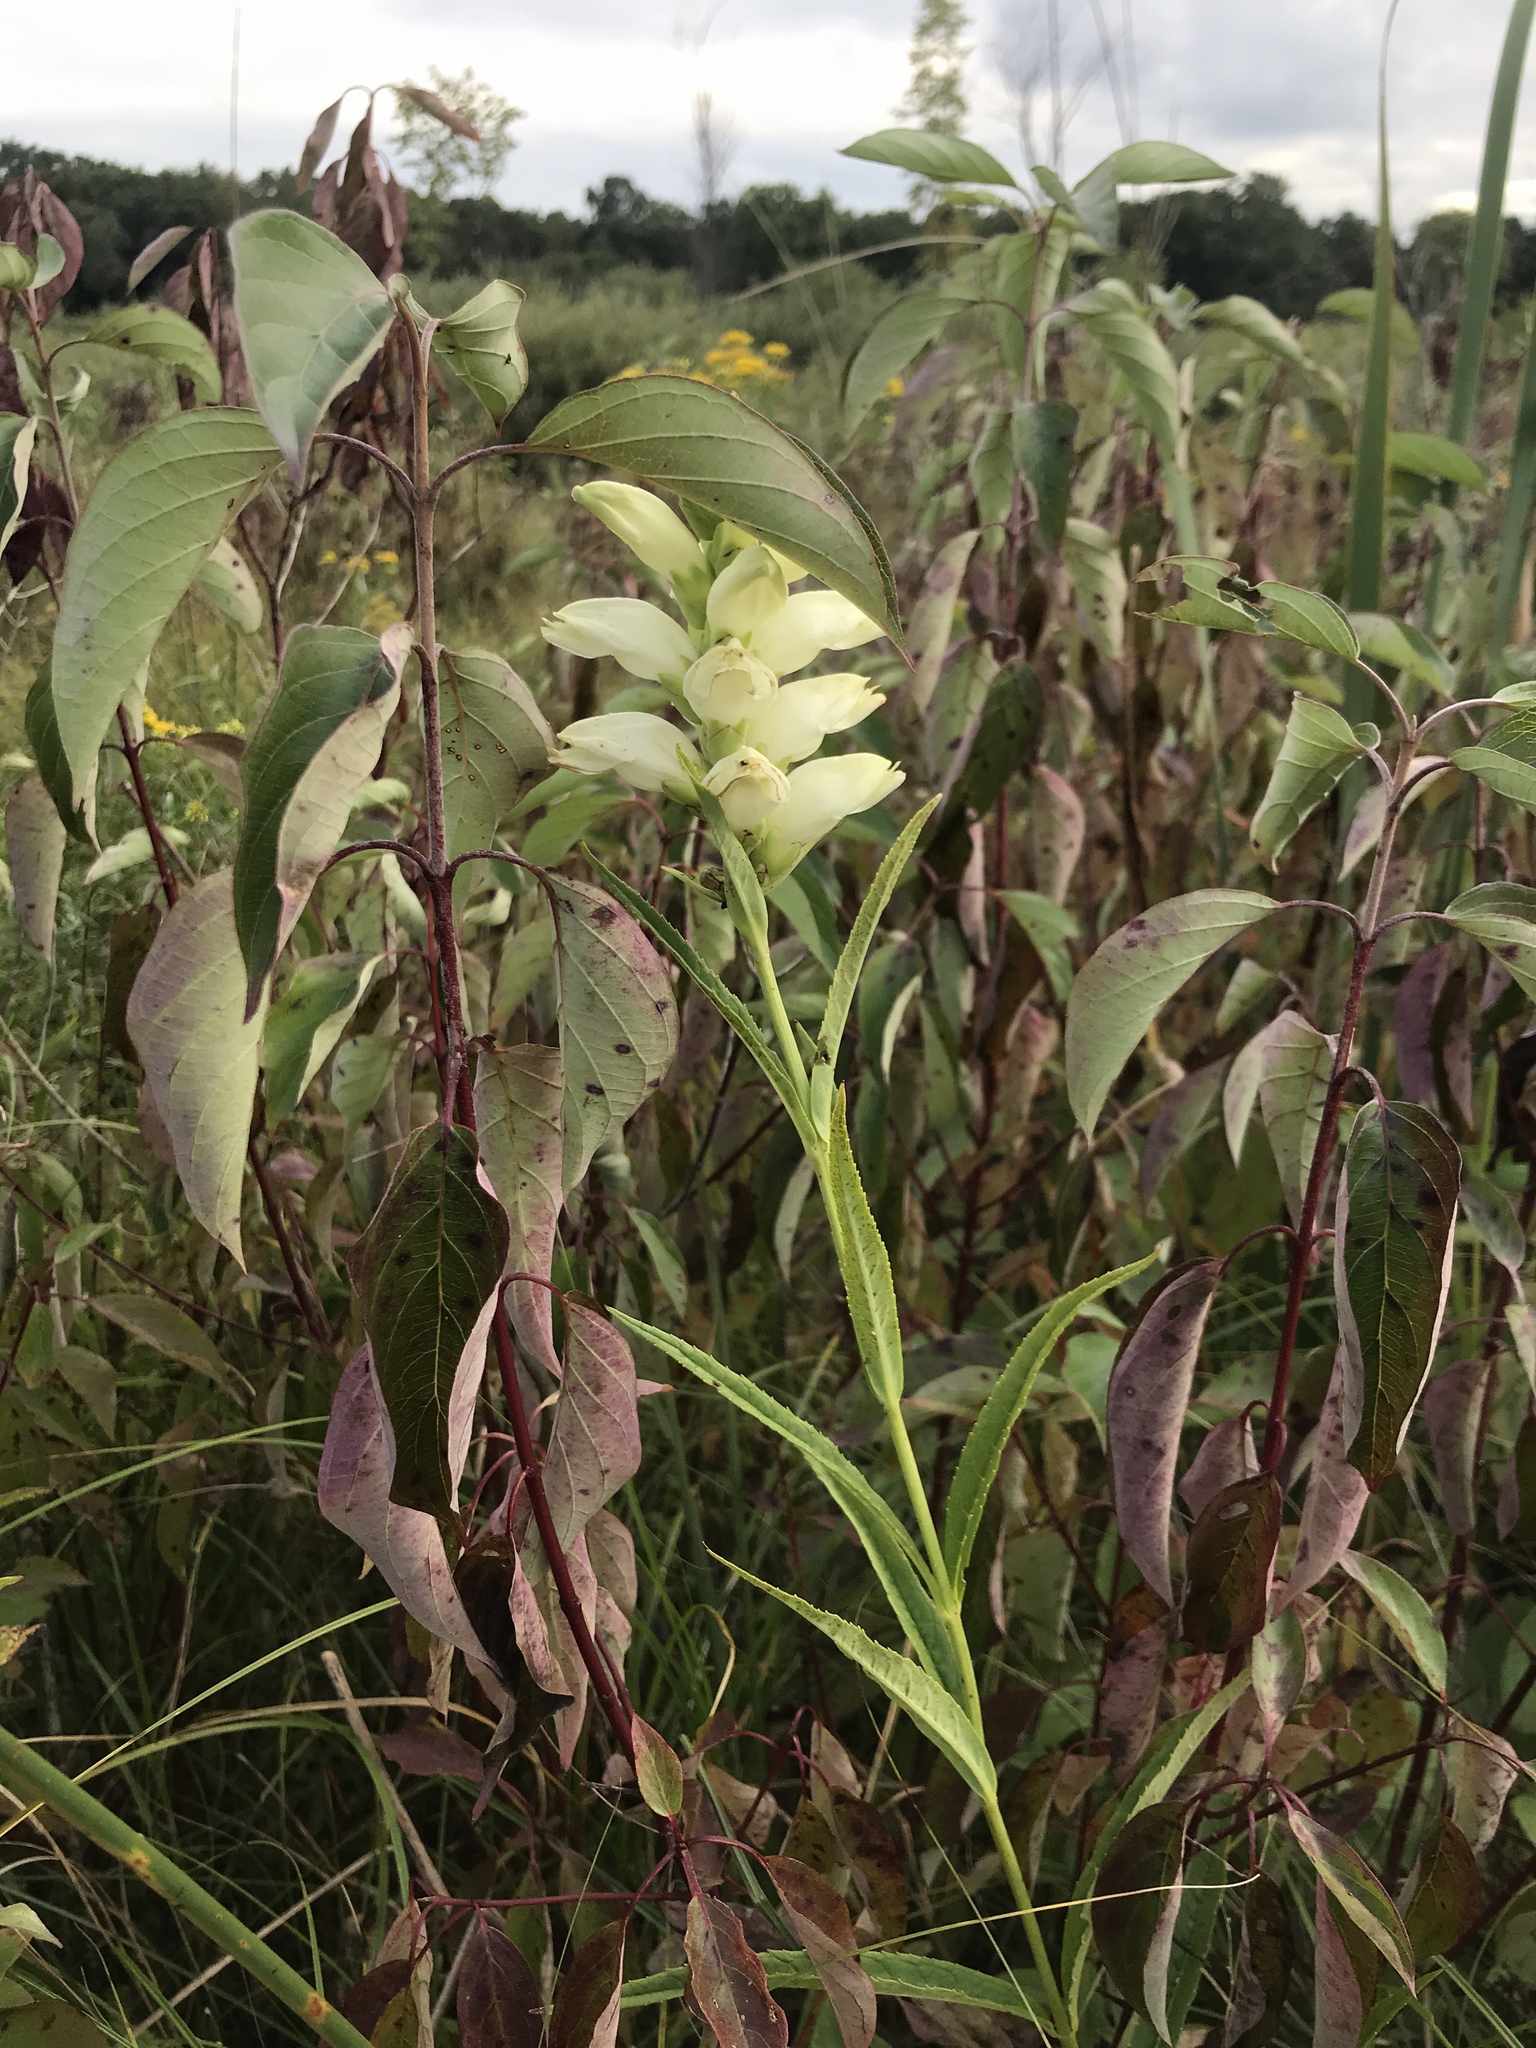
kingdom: Plantae
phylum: Tracheophyta
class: Magnoliopsida
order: Lamiales
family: Plantaginaceae
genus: Chelone
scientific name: Chelone glabra
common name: Snakehead
